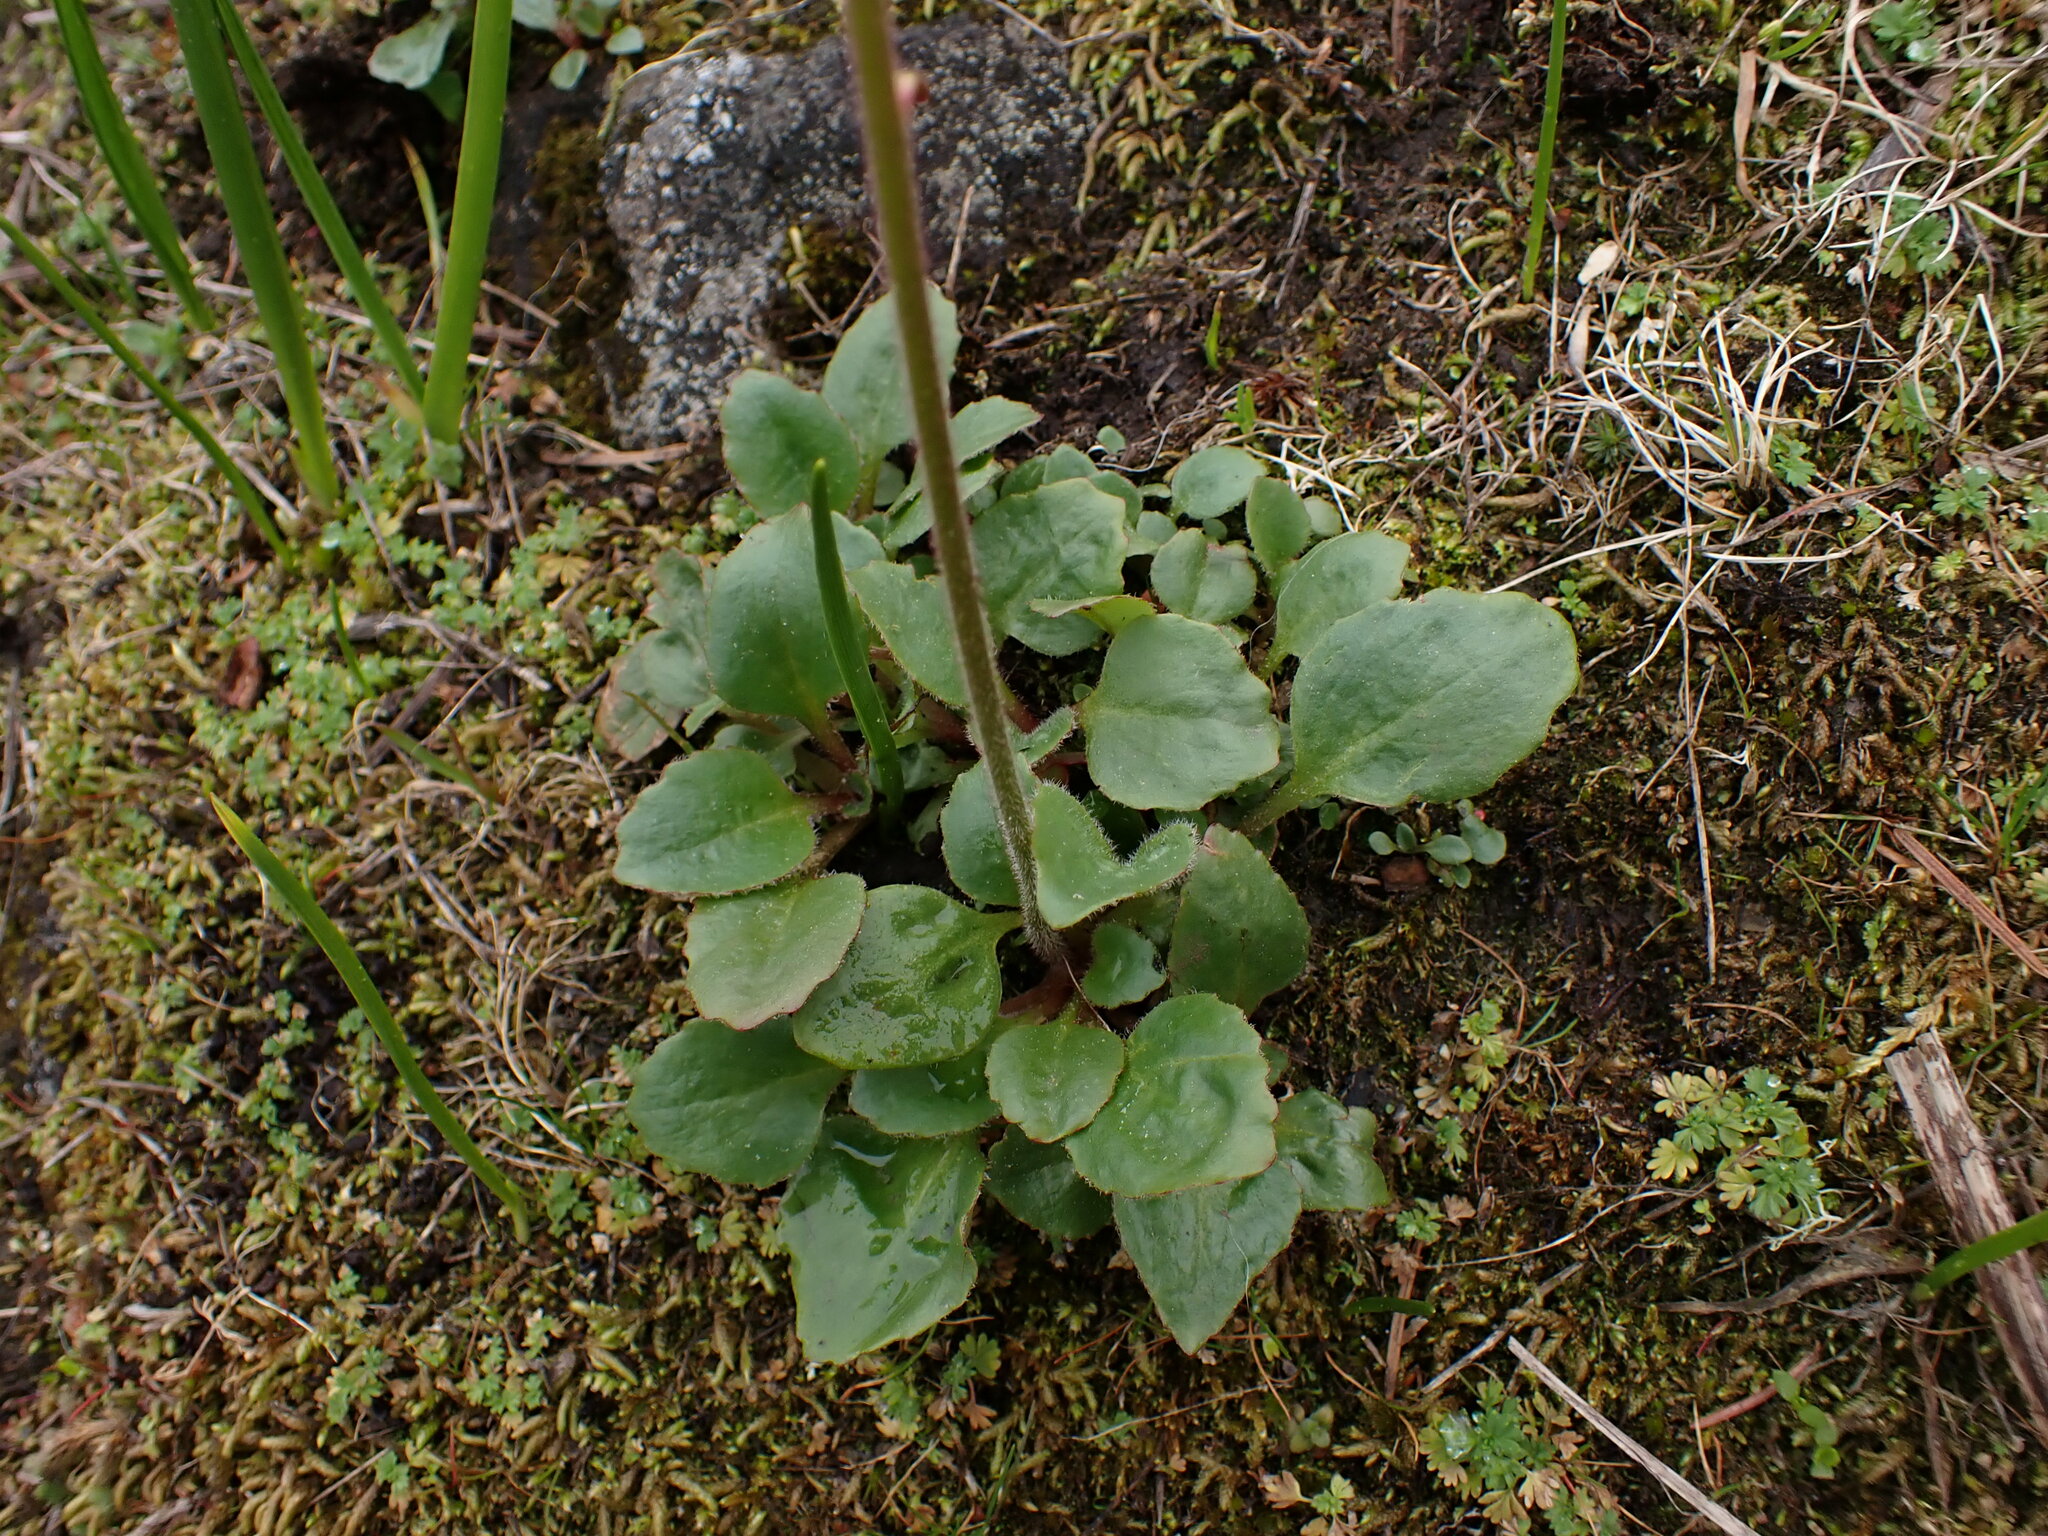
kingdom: Plantae
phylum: Tracheophyta
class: Magnoliopsida
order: Saxifragales
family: Saxifragaceae
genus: Micranthes
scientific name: Micranthes integrifolia
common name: Wholeleaf saxifrage
